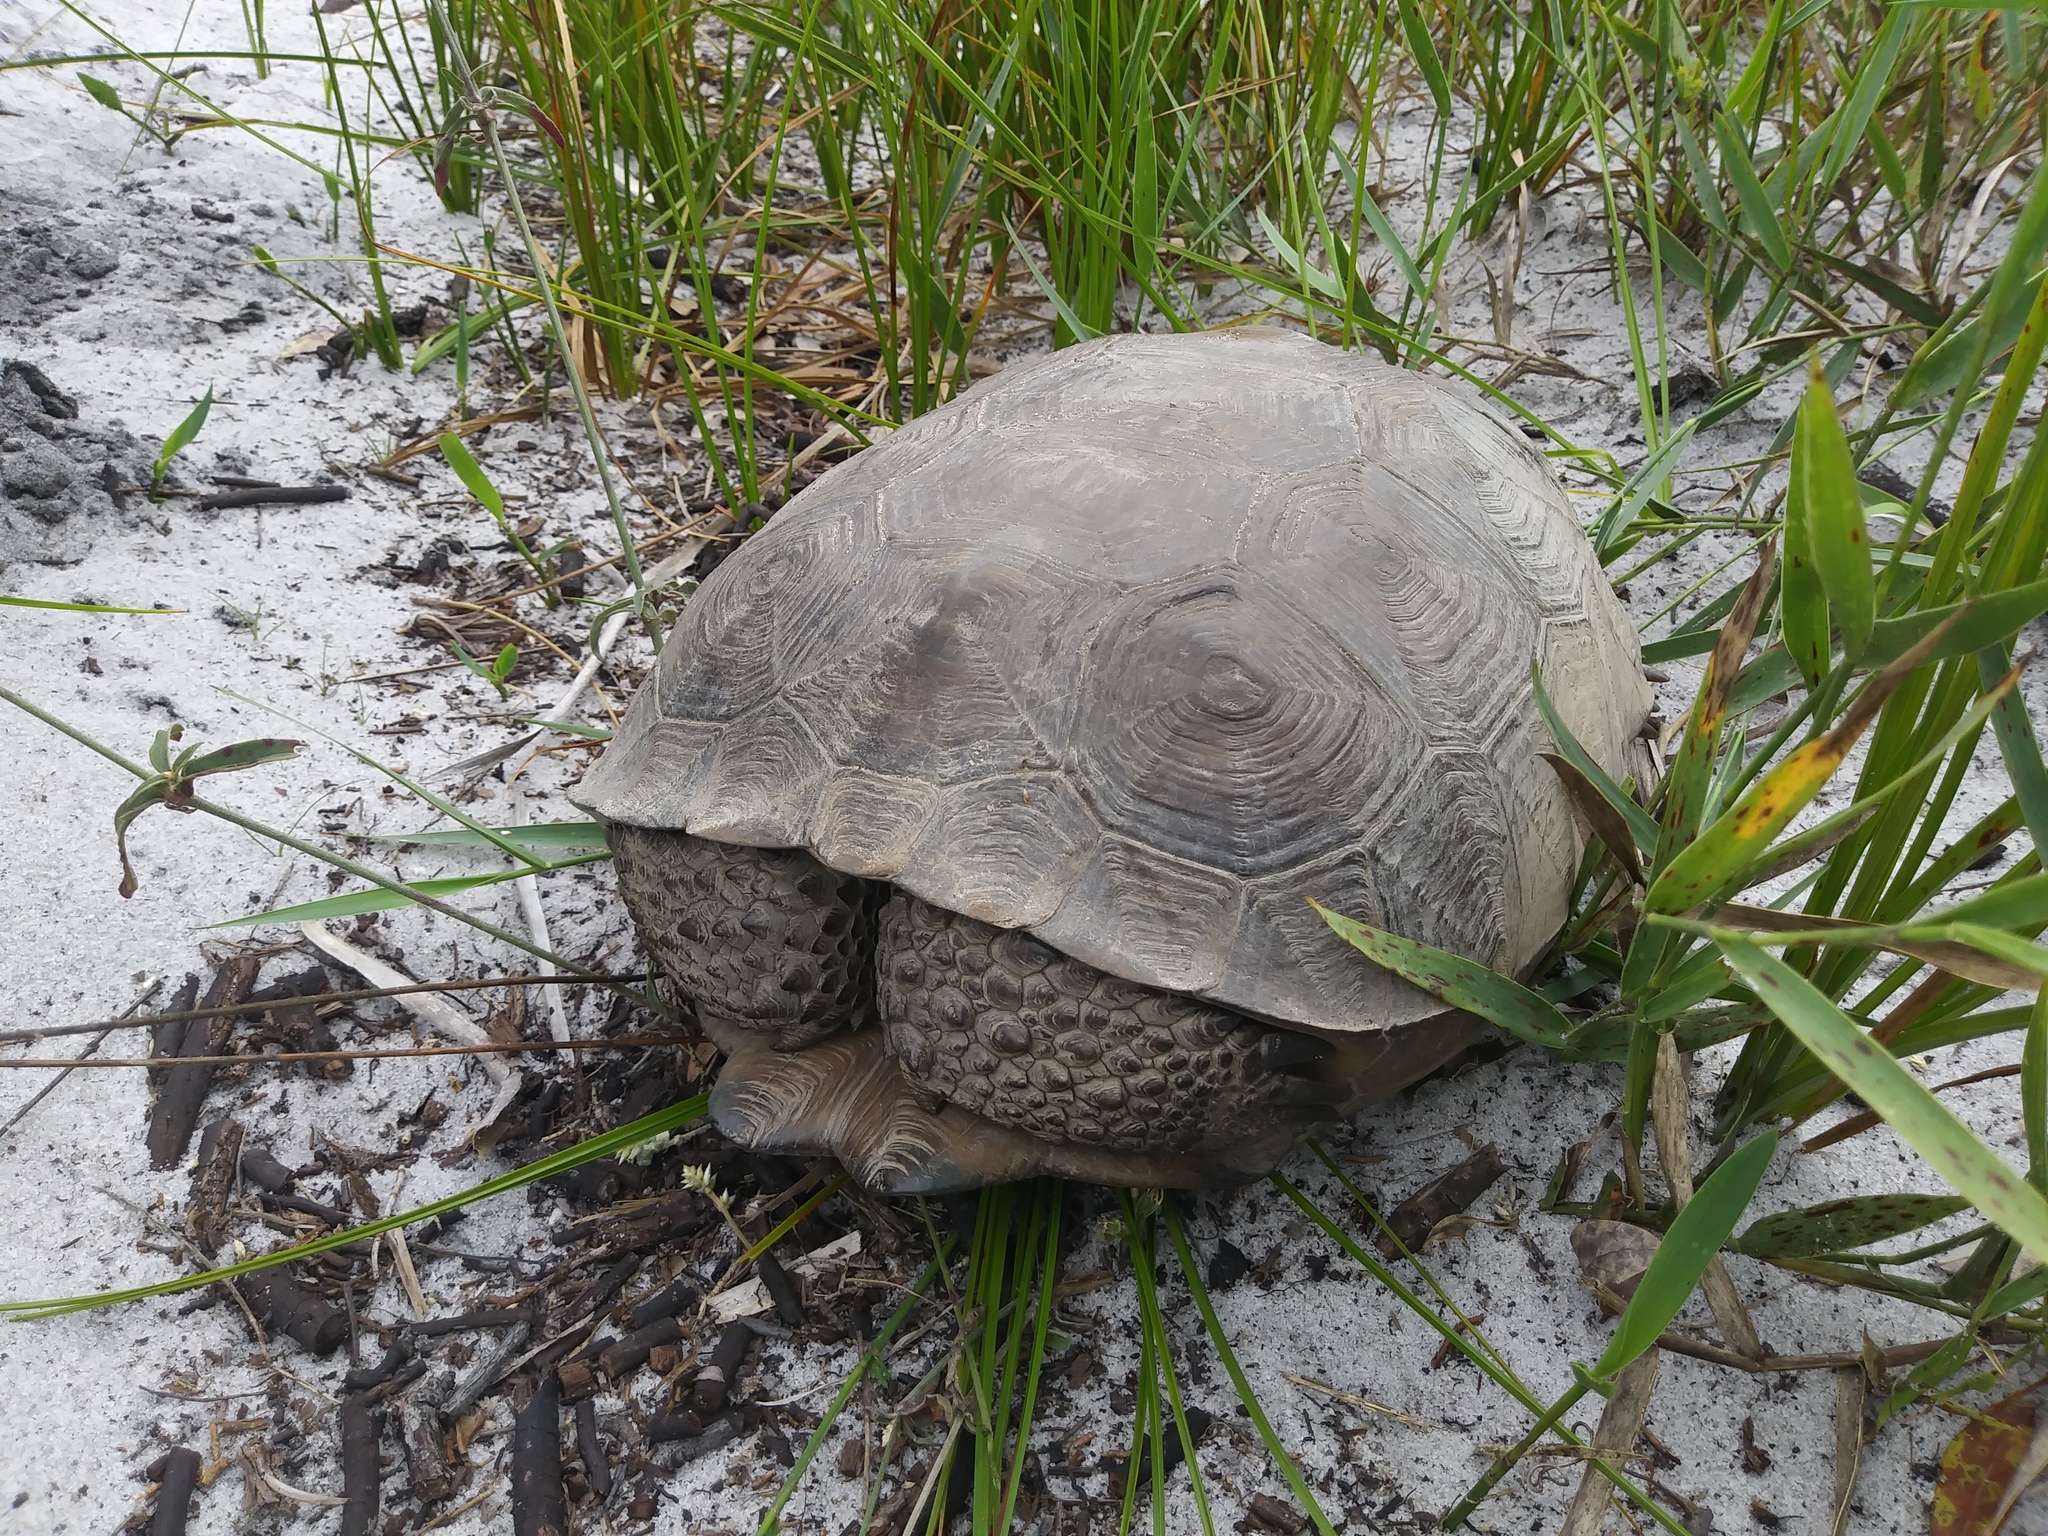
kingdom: Animalia
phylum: Chordata
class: Testudines
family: Testudinidae
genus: Gopherus
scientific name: Gopherus polyphemus
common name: Florida gopher tortoise
